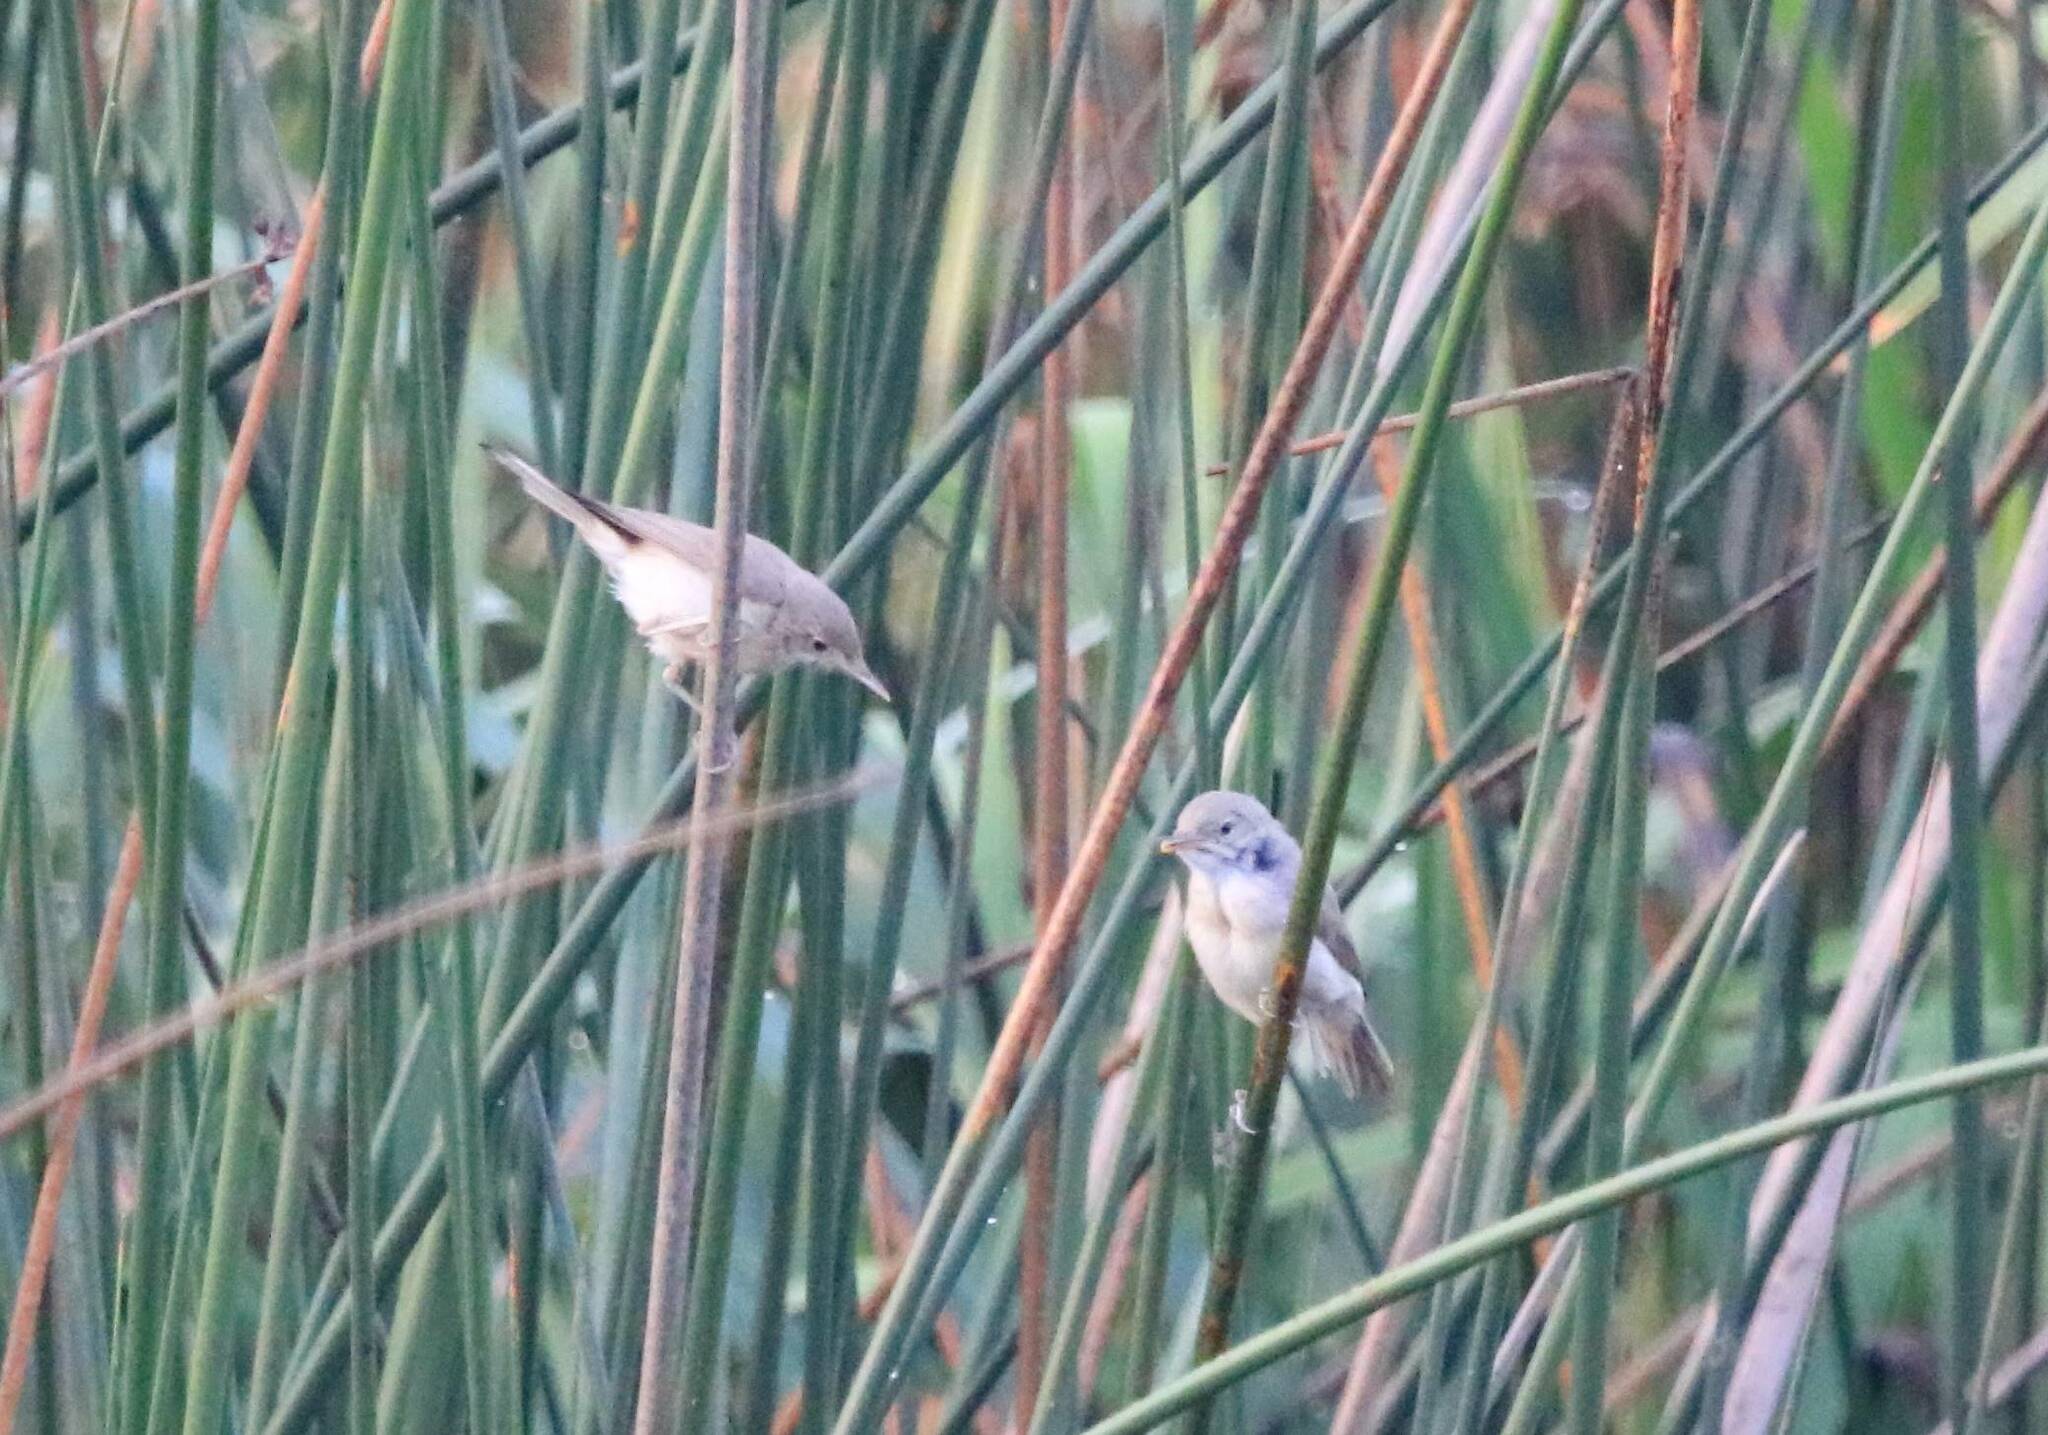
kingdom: Animalia
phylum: Chordata
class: Aves
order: Passeriformes
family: Acrocephalidae
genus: Acrocephalus
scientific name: Acrocephalus scirpaceus
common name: Eurasian reed warbler
